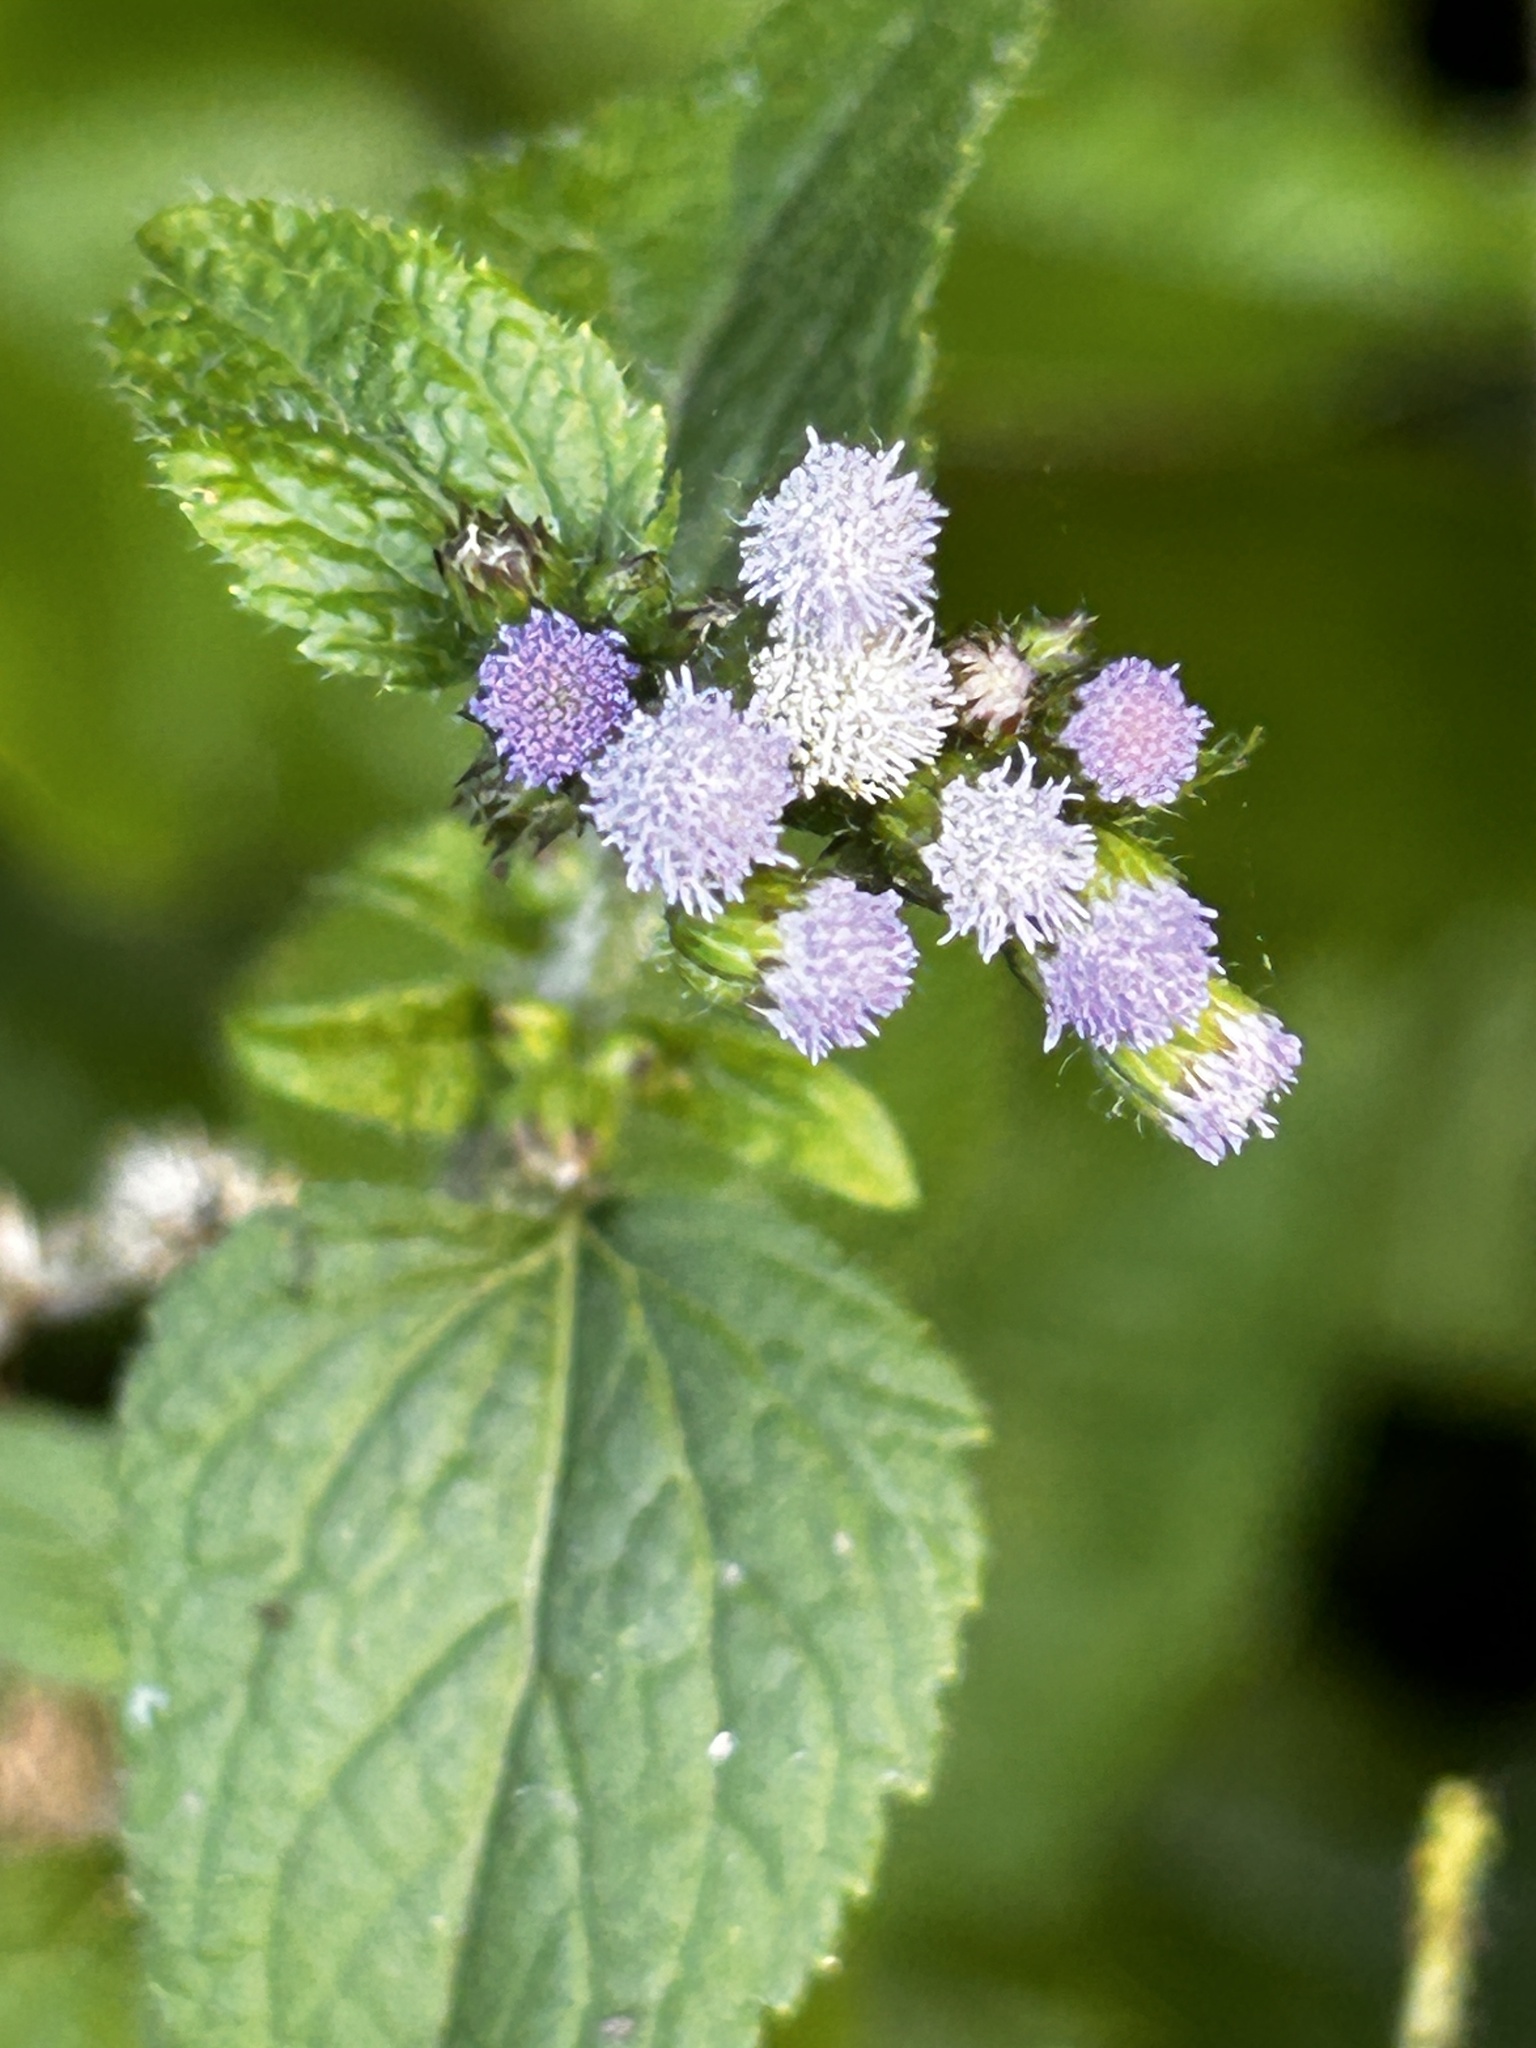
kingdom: Plantae
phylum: Tracheophyta
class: Magnoliopsida
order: Asterales
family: Asteraceae
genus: Ageratum
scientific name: Ageratum conyzoides
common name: Tropical whiteweed
